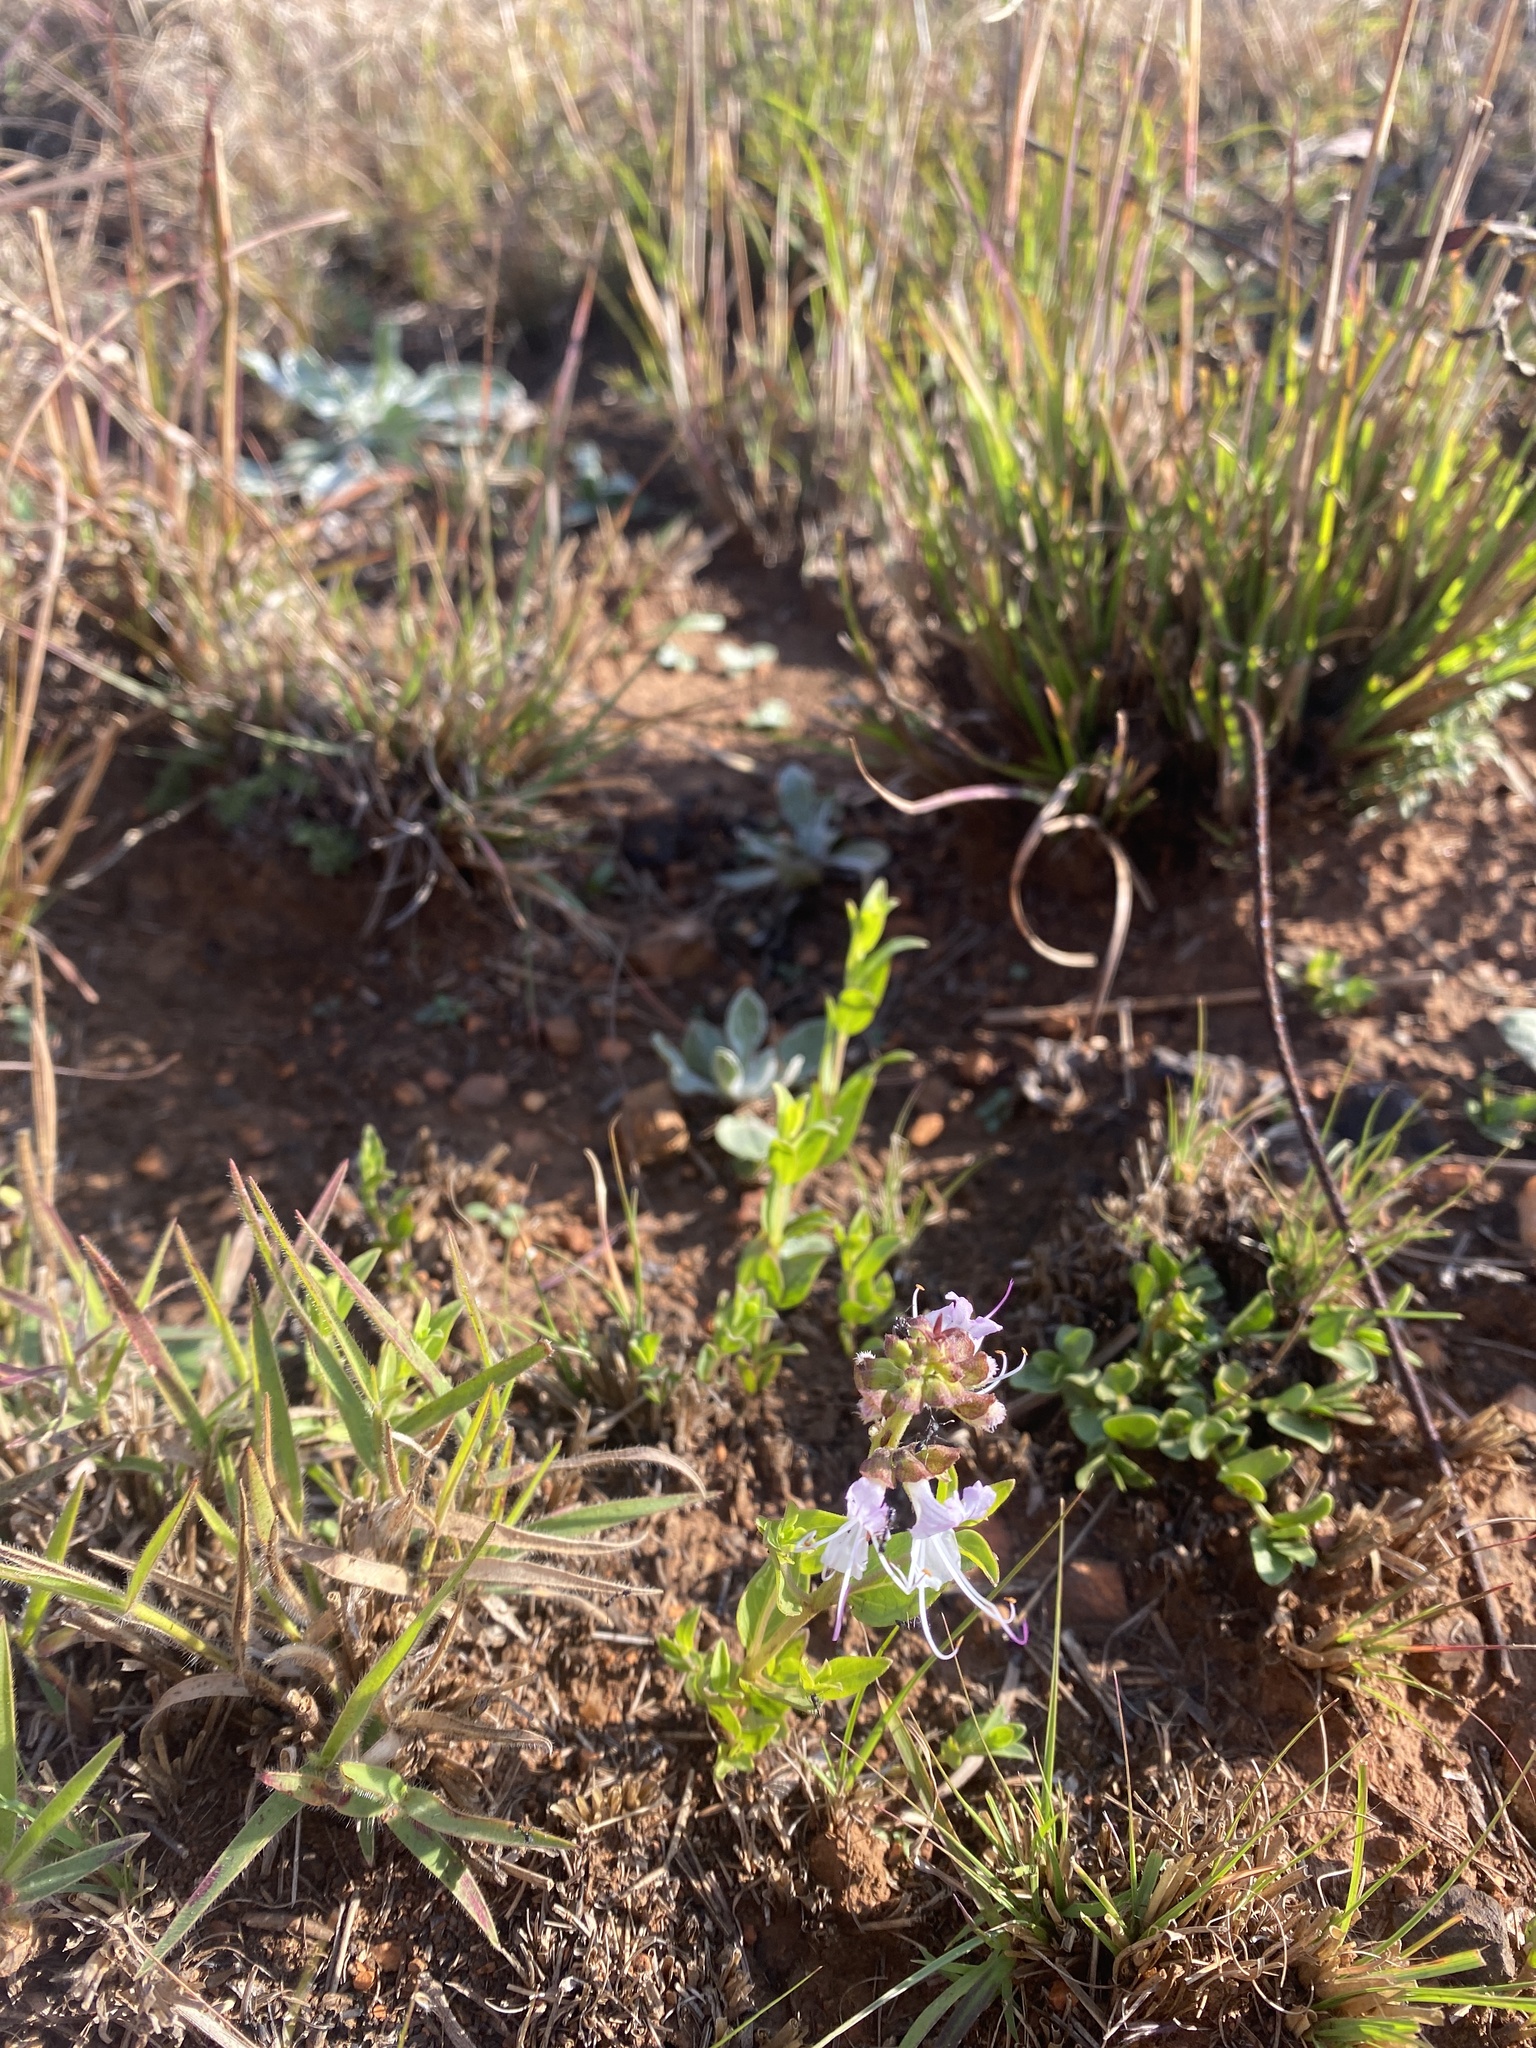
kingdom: Plantae
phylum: Tracheophyta
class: Magnoliopsida
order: Lamiales
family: Lamiaceae
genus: Ocimum
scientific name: Ocimum obovatum
